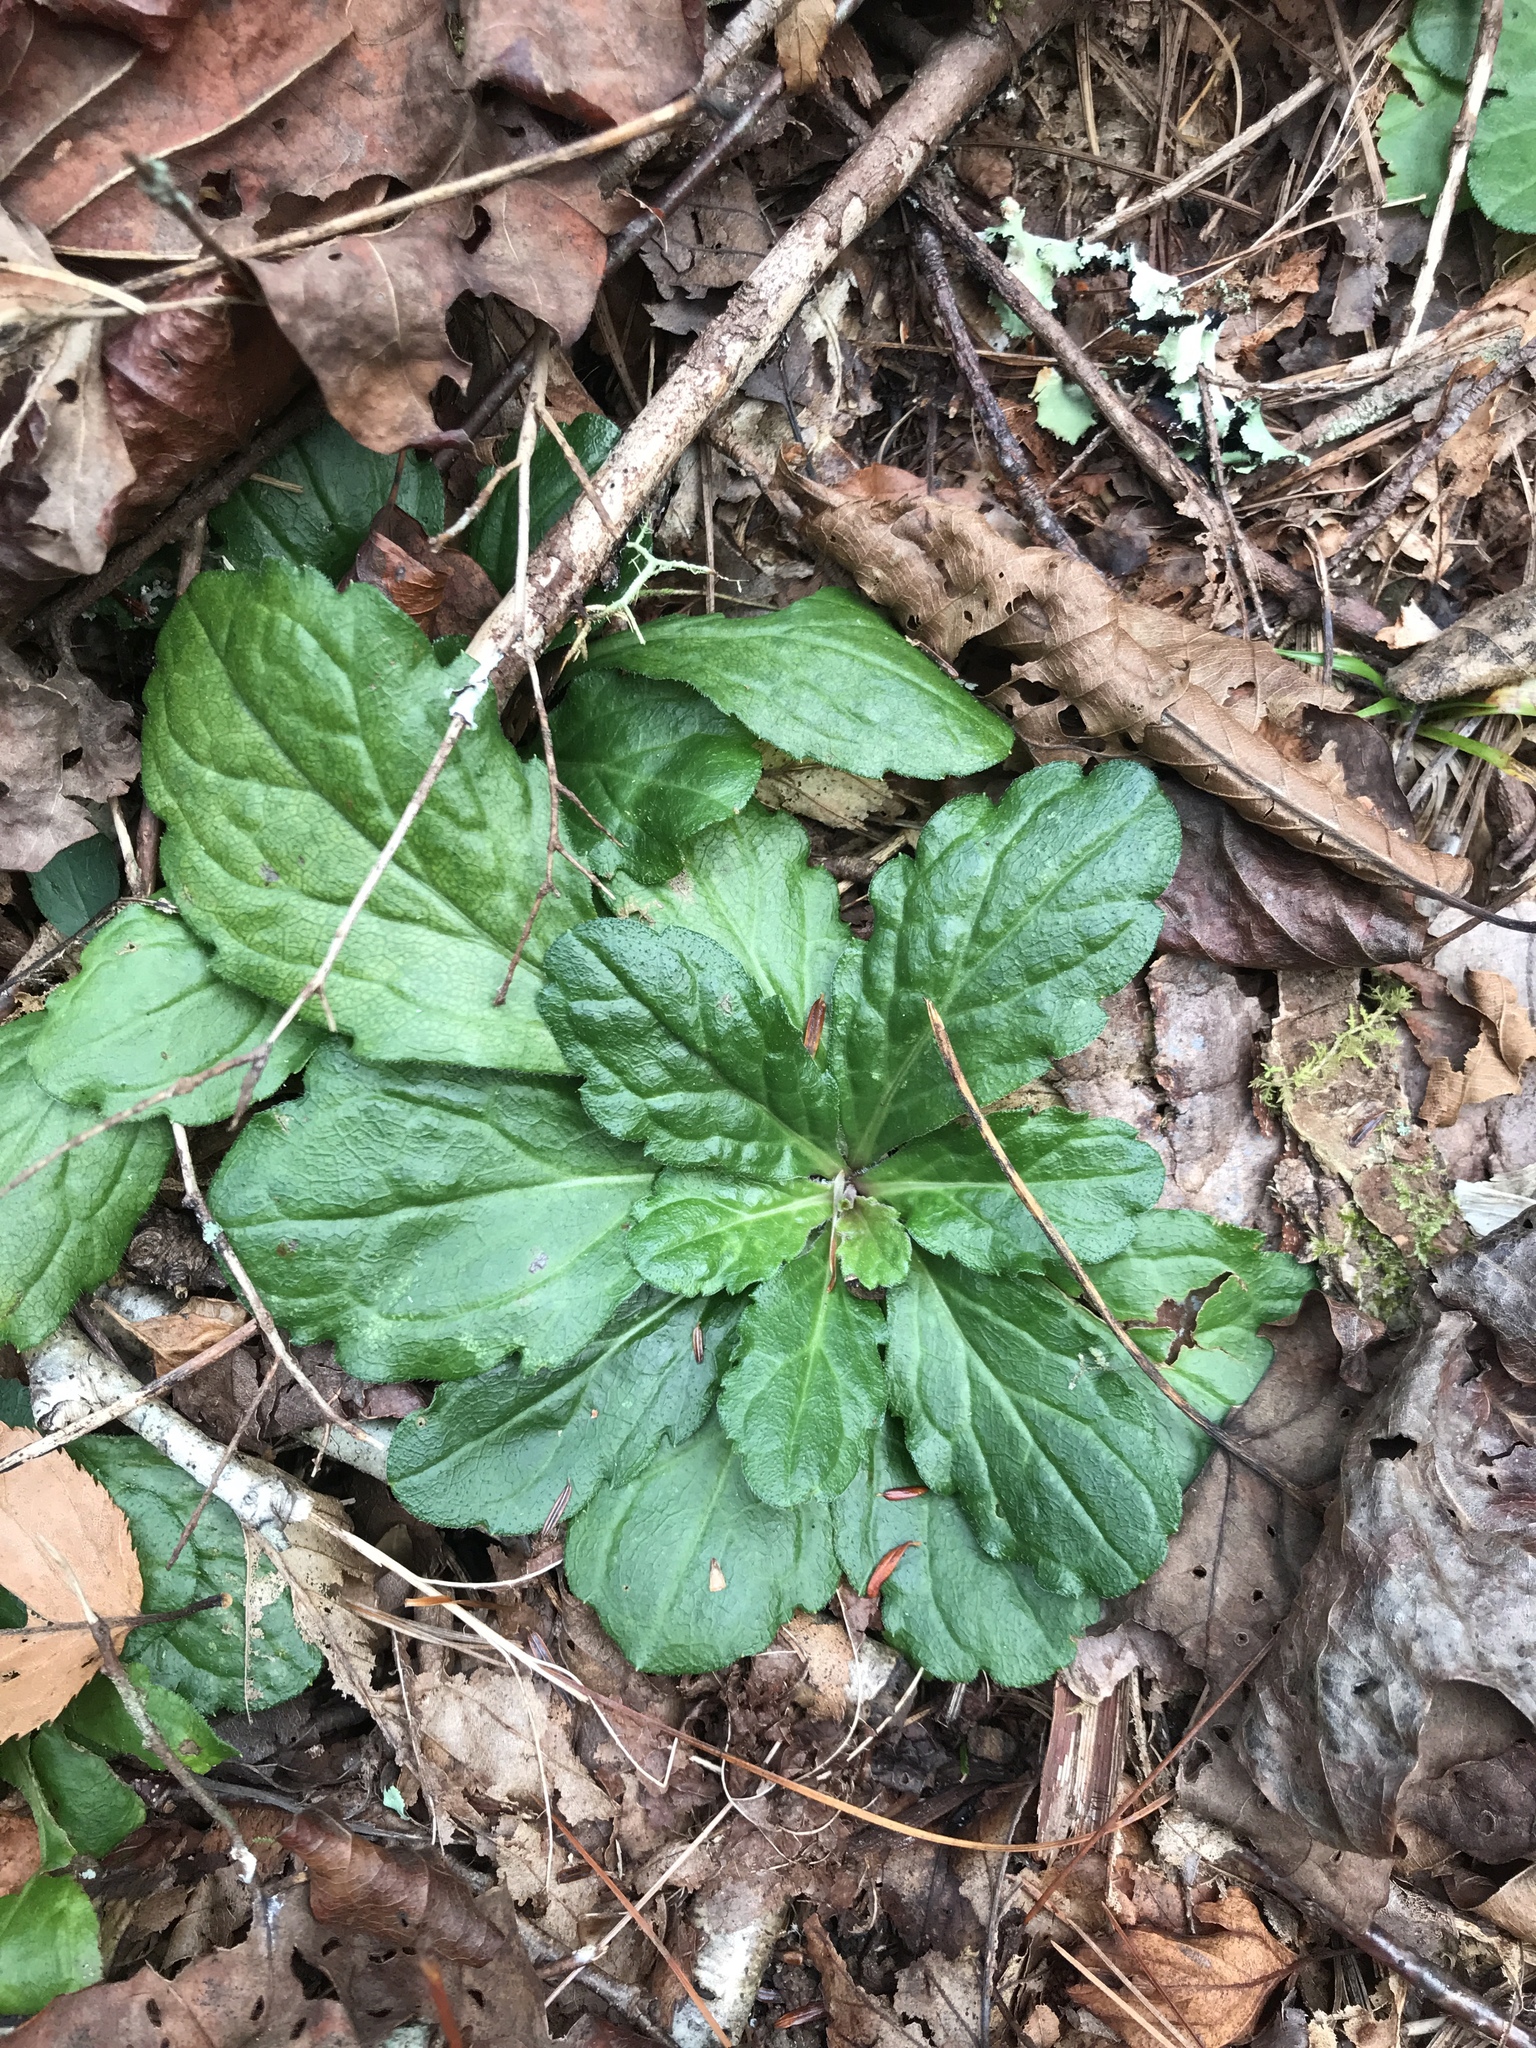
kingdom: Plantae
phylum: Tracheophyta
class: Magnoliopsida
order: Asterales
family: Asteraceae
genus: Erigeron
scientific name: Erigeron pulchellus
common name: Hairy fleabane
